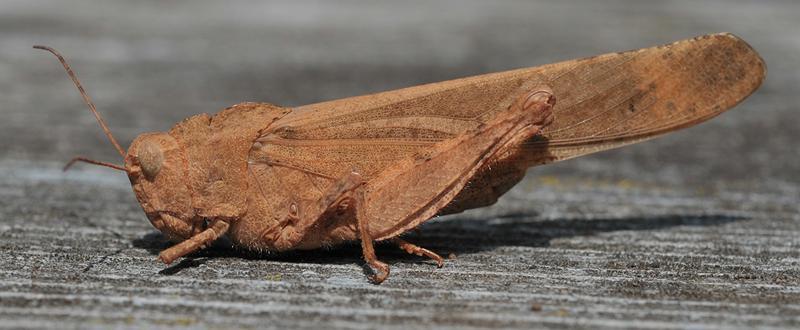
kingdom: Animalia
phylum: Arthropoda
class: Insecta
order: Orthoptera
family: Acrididae
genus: Dissosteira
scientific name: Dissosteira carolina
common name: Carolina grasshopper
